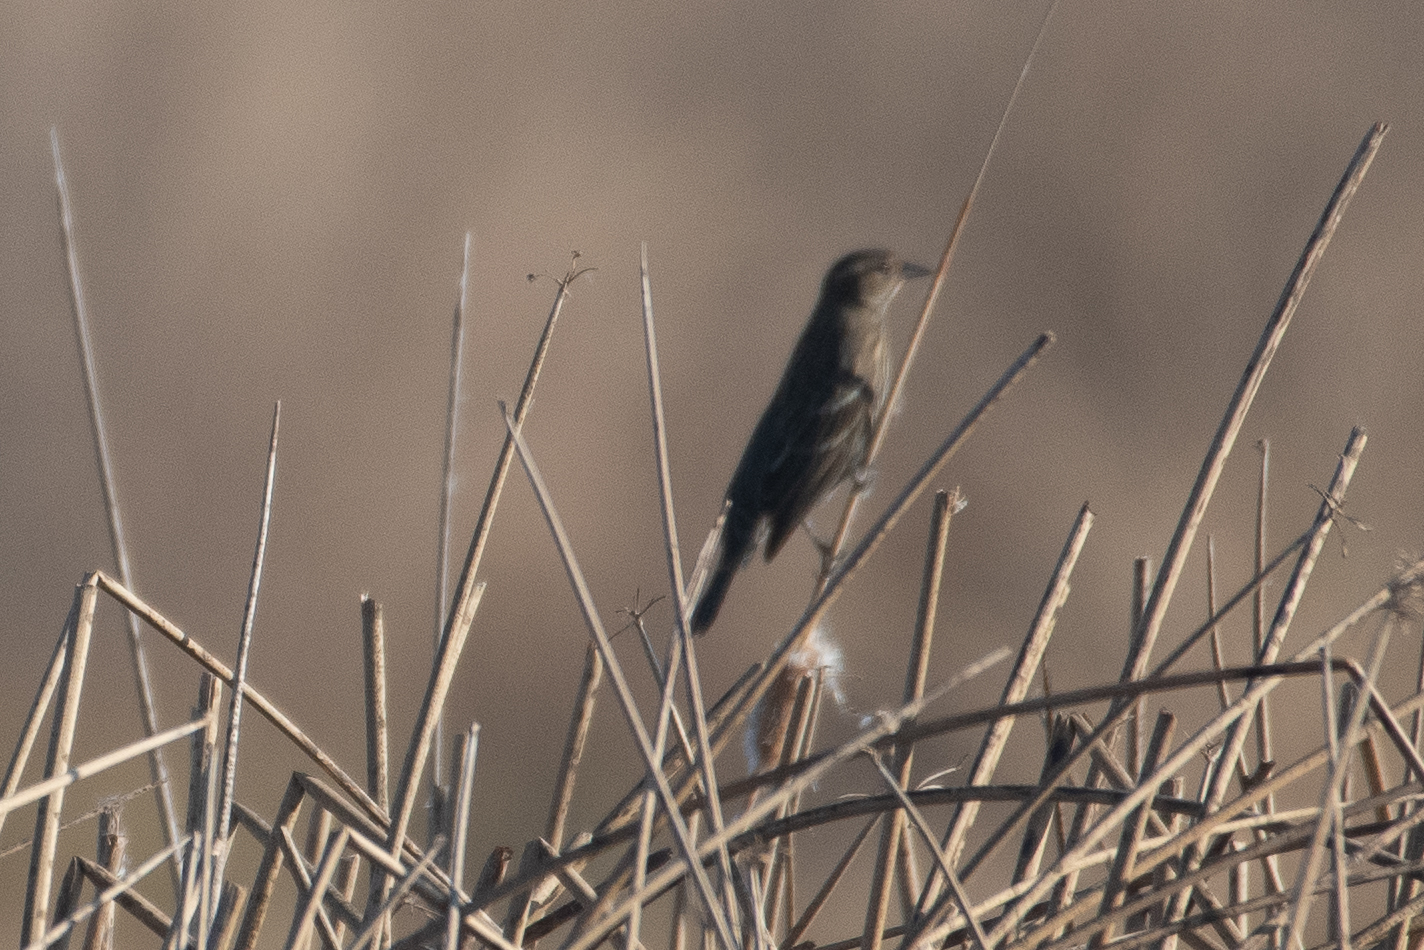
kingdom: Animalia
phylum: Chordata
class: Aves
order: Passeriformes
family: Icteridae
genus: Agelaius
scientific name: Agelaius phoeniceus
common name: Red-winged blackbird
